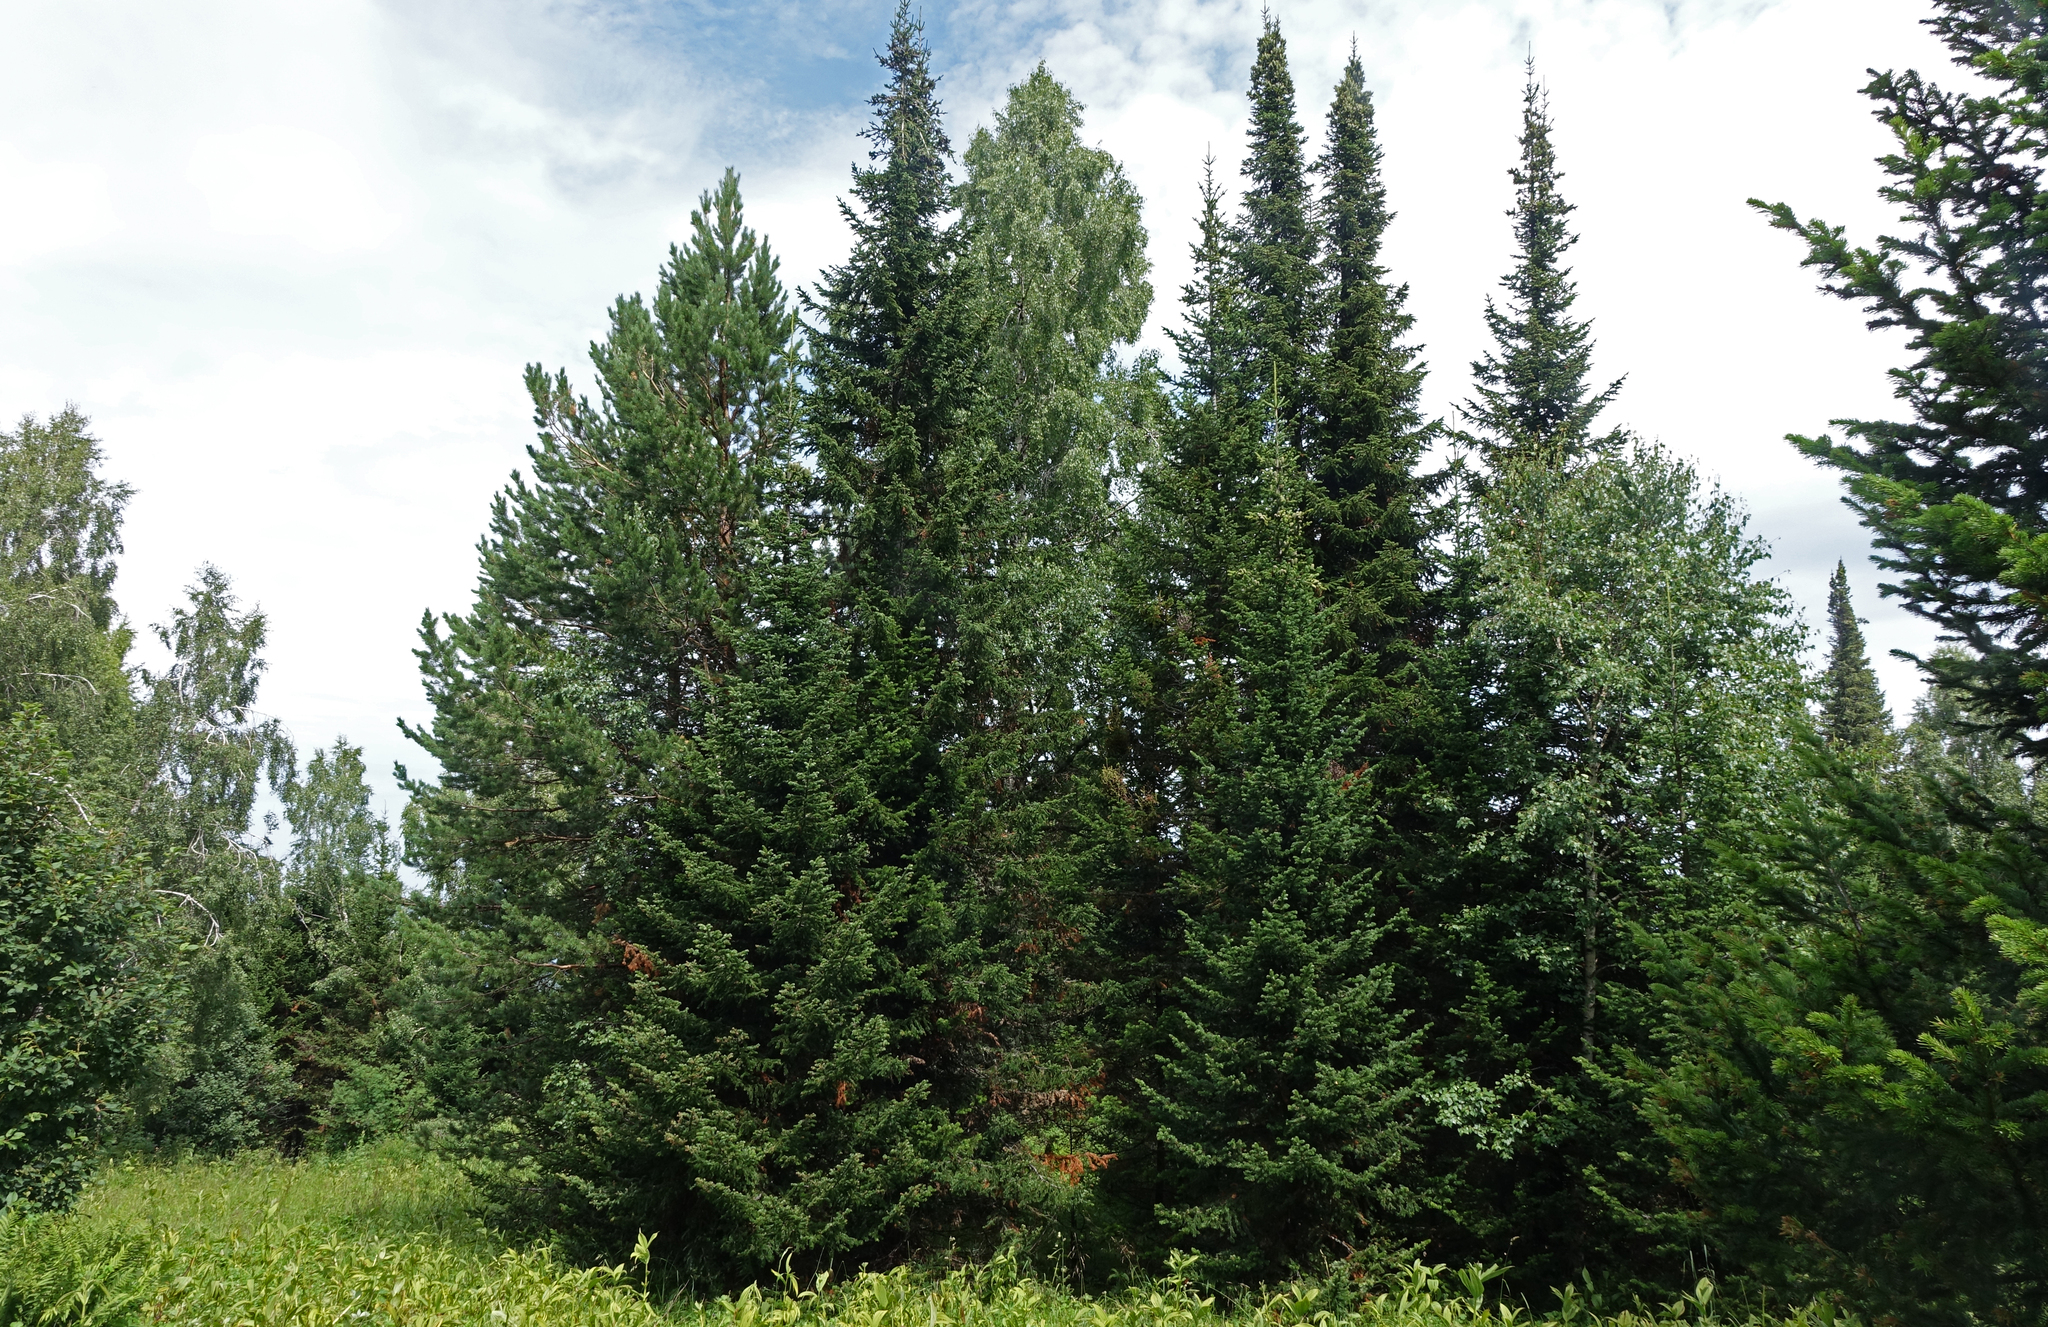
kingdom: Plantae
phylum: Tracheophyta
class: Pinopsida
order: Pinales
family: Pinaceae
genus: Abies
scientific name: Abies sibirica
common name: Siberian fir
